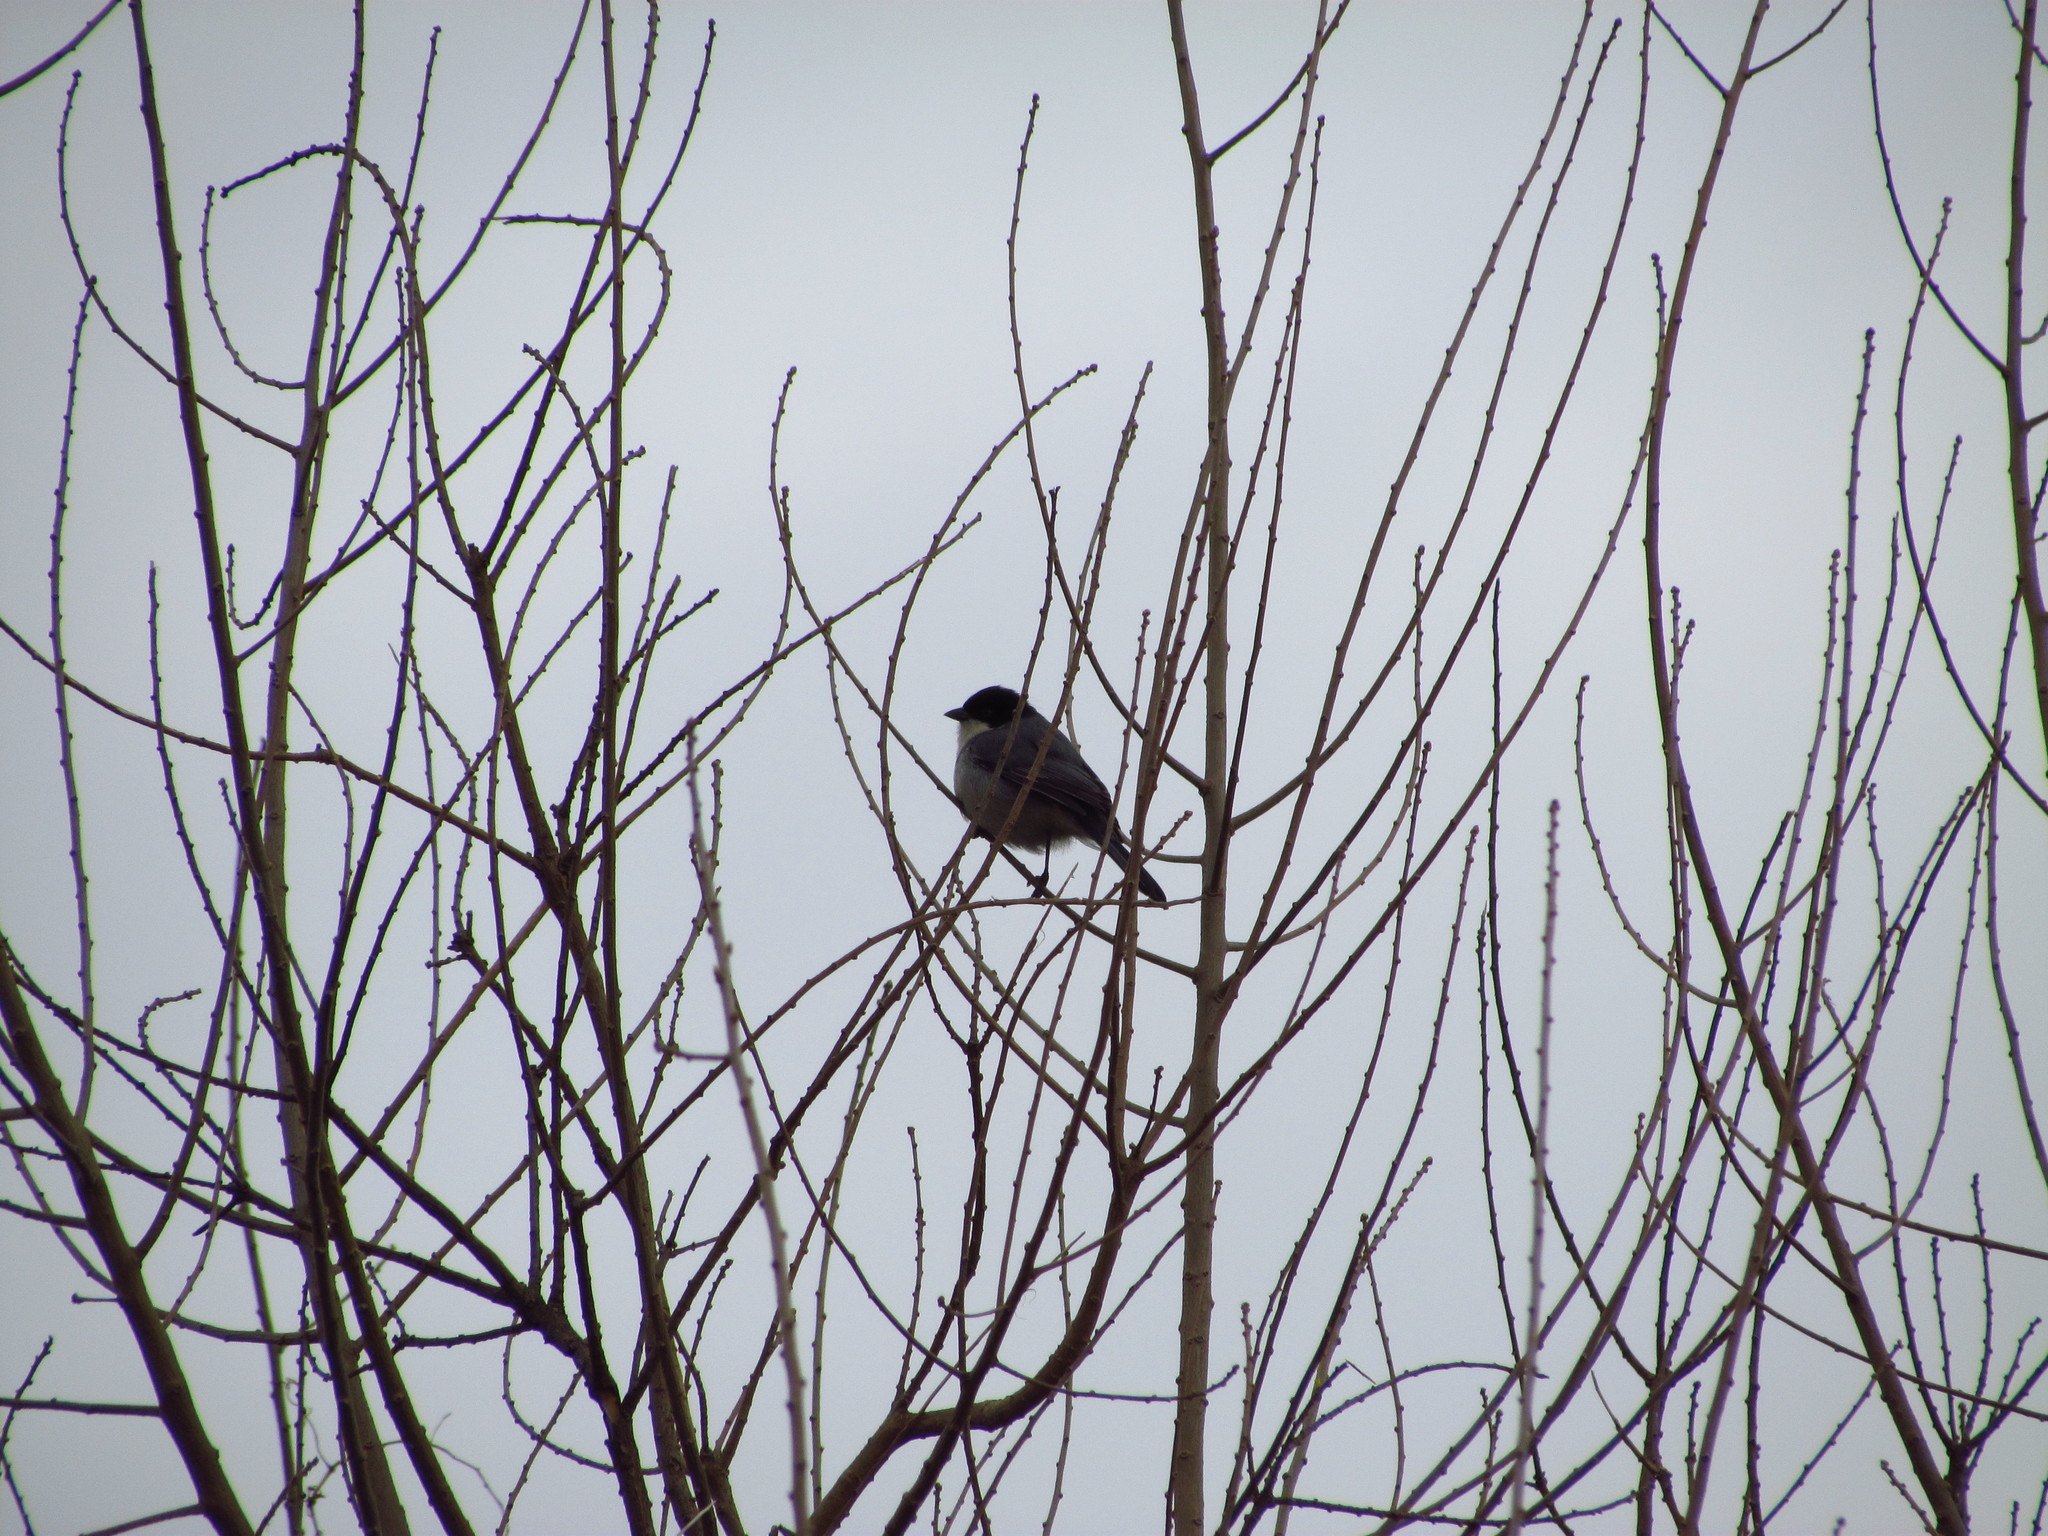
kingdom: Animalia
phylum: Chordata
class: Aves
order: Passeriformes
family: Thraupidae
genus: Microspingus
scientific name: Microspingus melanoleucus
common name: Black-capped warbling-finch
